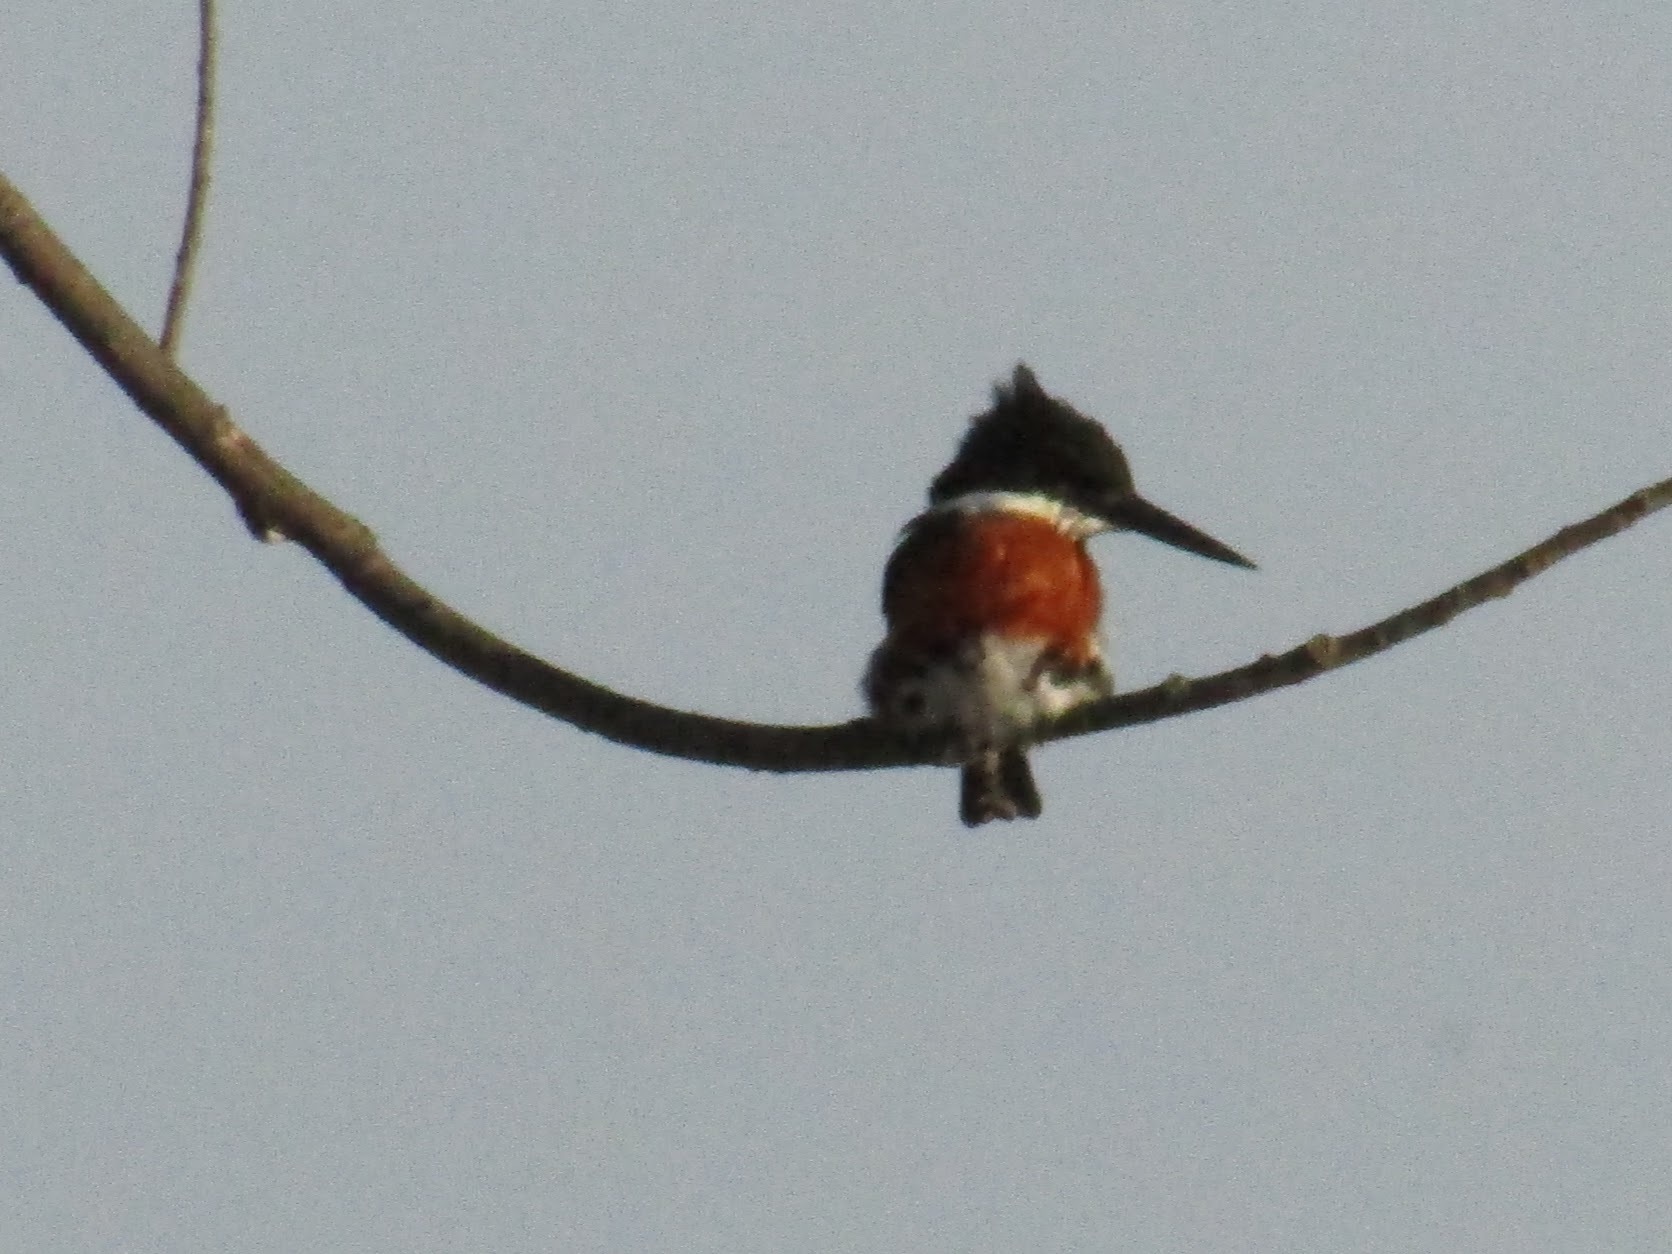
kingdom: Animalia
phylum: Chordata
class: Aves
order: Coraciiformes
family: Alcedinidae
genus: Chloroceryle
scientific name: Chloroceryle americana
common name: Green kingfisher
